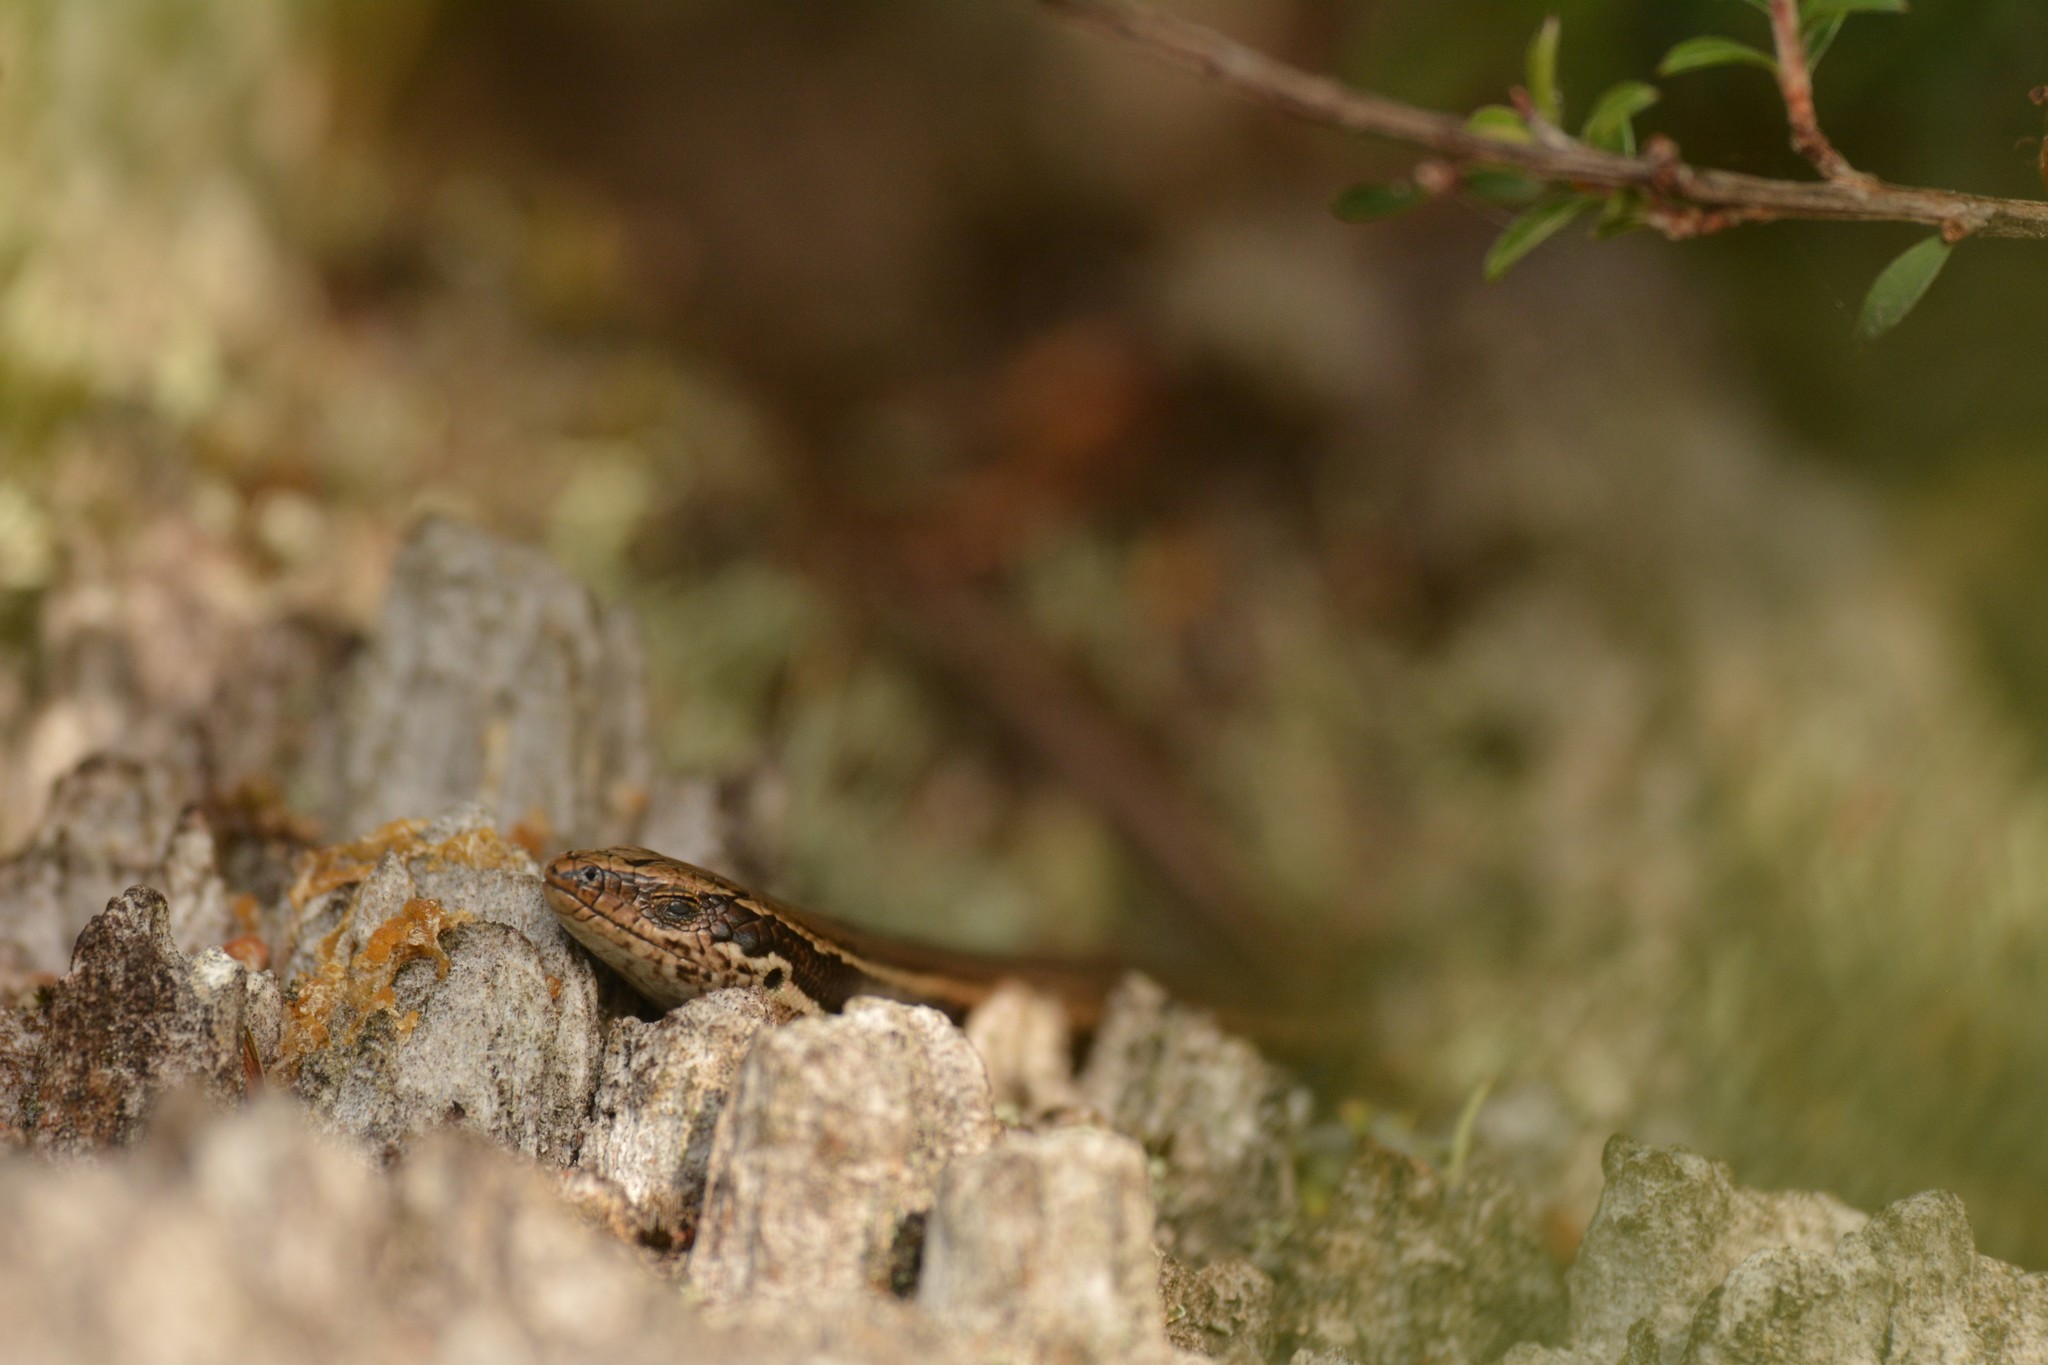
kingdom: Animalia
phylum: Chordata
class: Squamata
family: Scincidae
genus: Oligosoma
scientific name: Oligosoma polychroma
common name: Common new zealand skink
